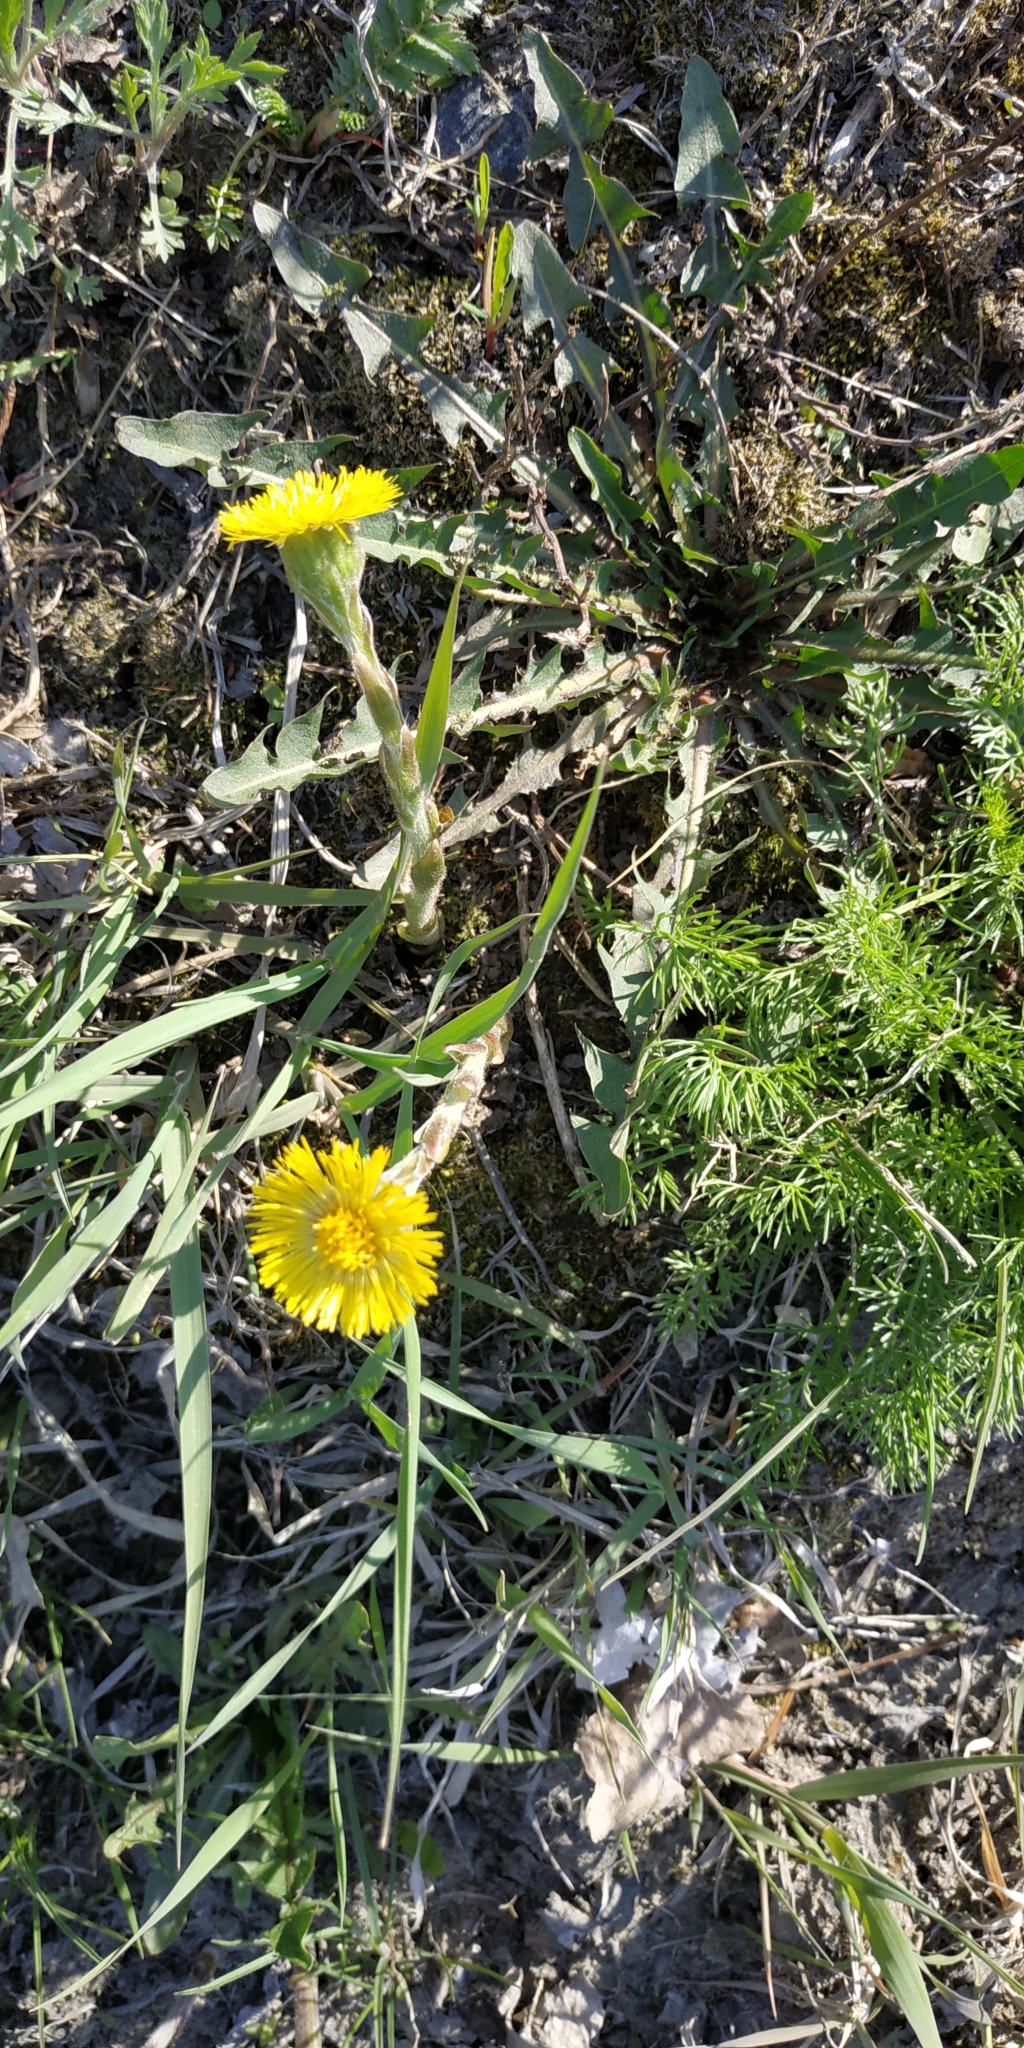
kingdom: Plantae
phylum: Tracheophyta
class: Magnoliopsida
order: Asterales
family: Asteraceae
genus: Tussilago
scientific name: Tussilago farfara
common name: Coltsfoot
